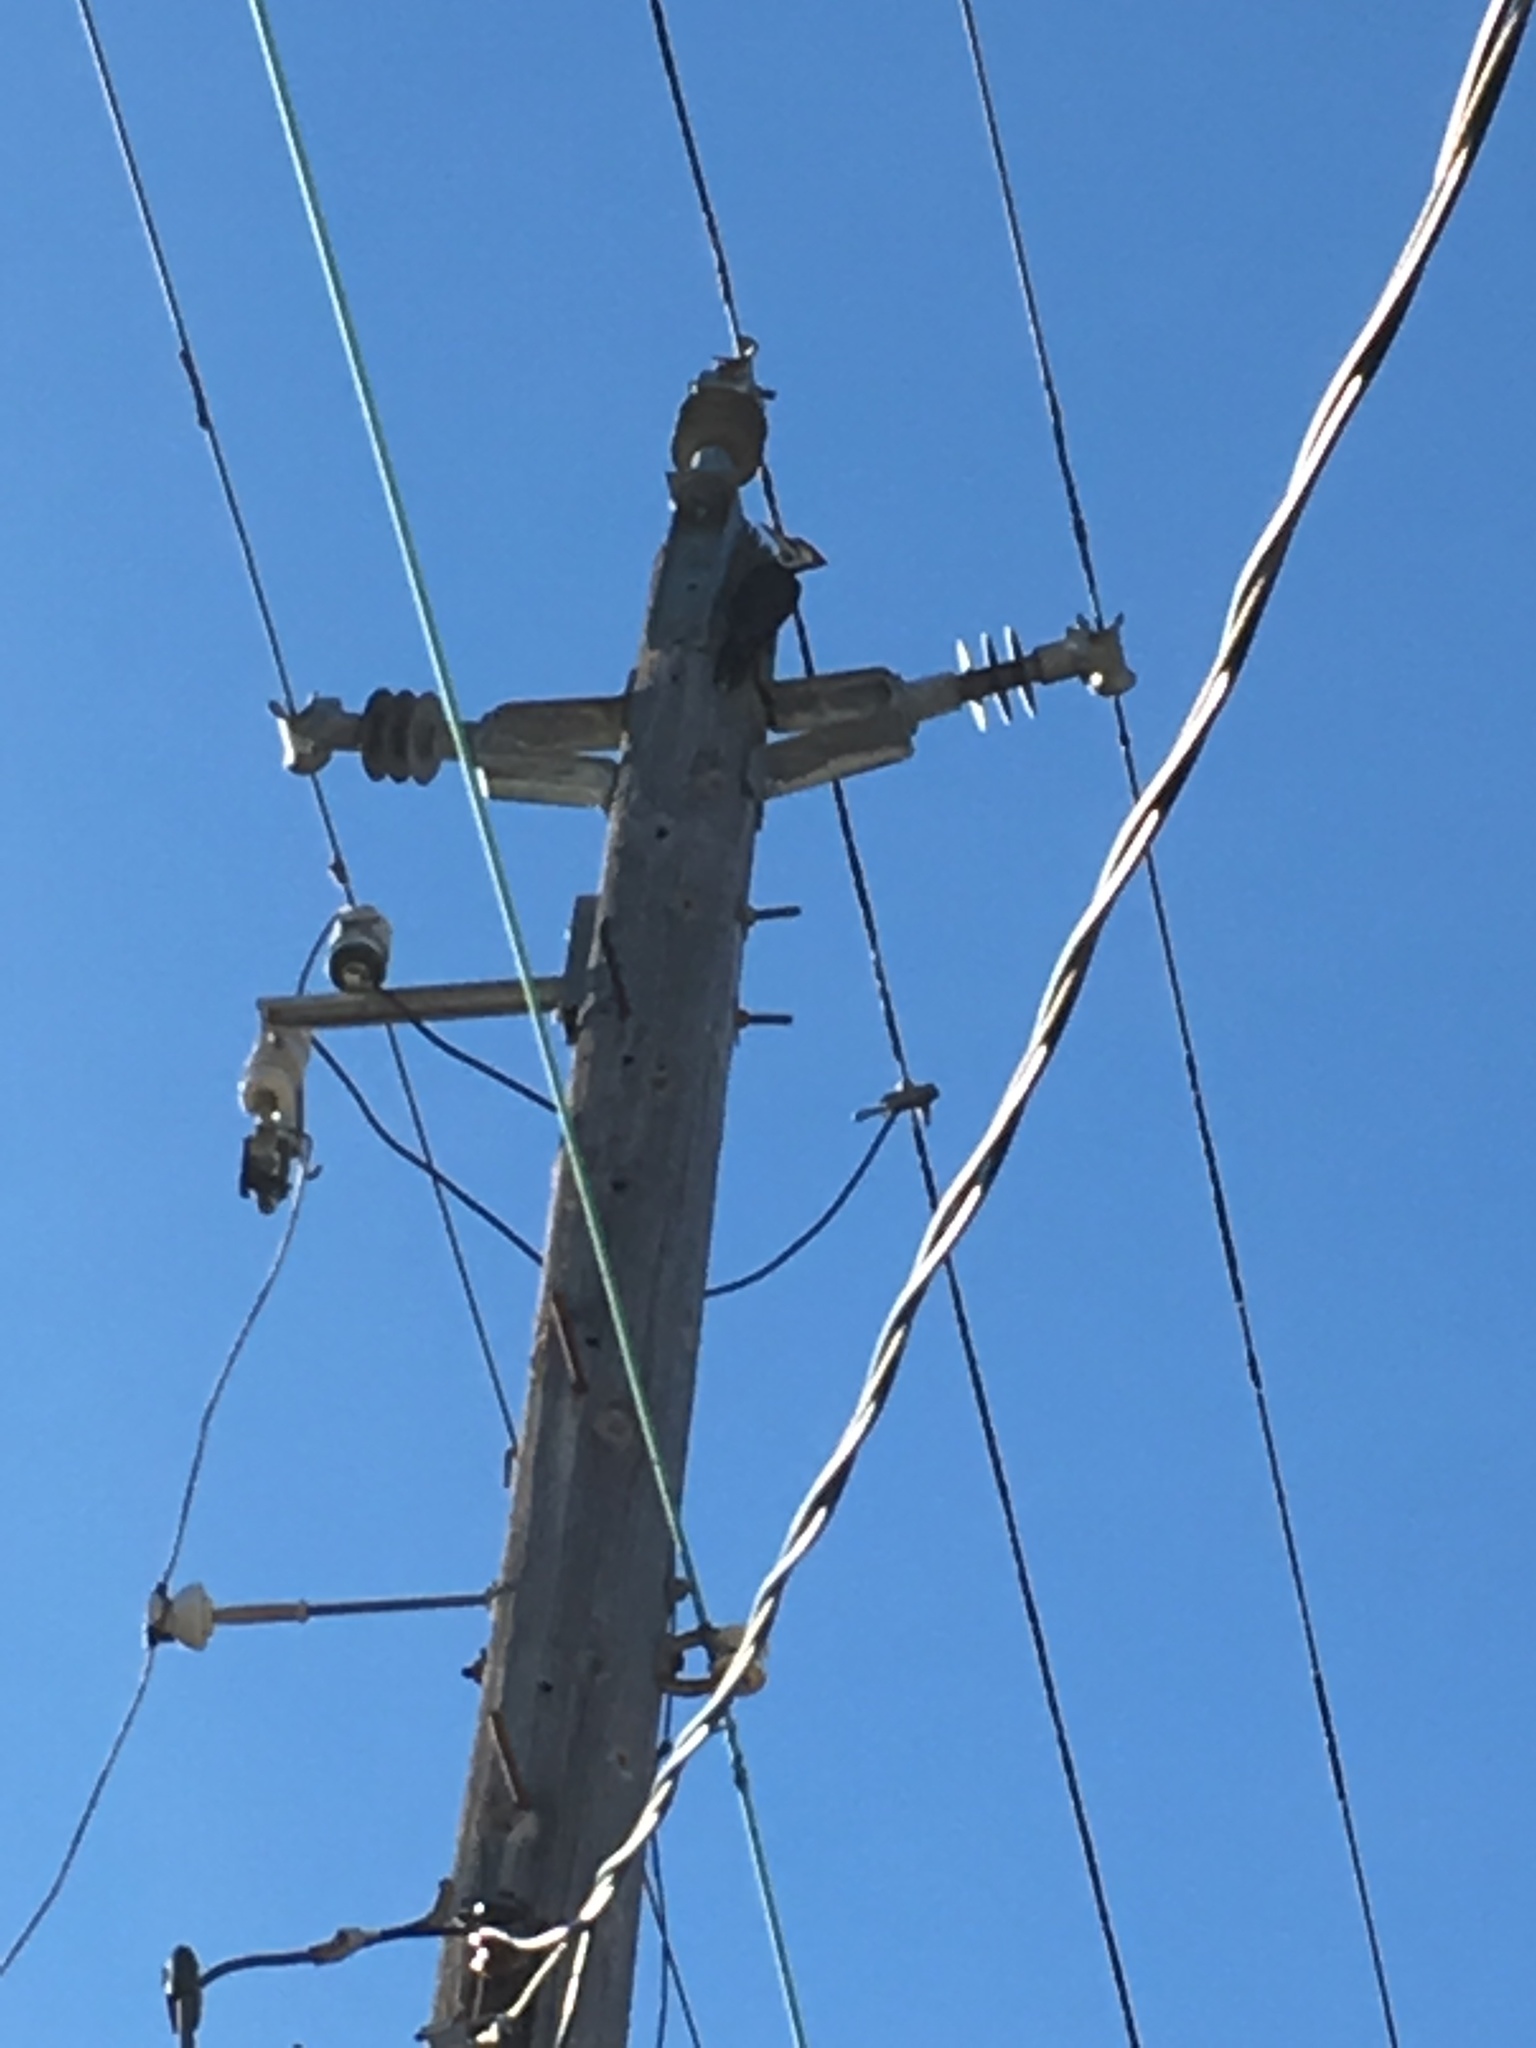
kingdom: Animalia
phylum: Chordata
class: Aves
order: Piciformes
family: Picidae
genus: Dryocopus
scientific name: Dryocopus pileatus
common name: Pileated woodpecker
